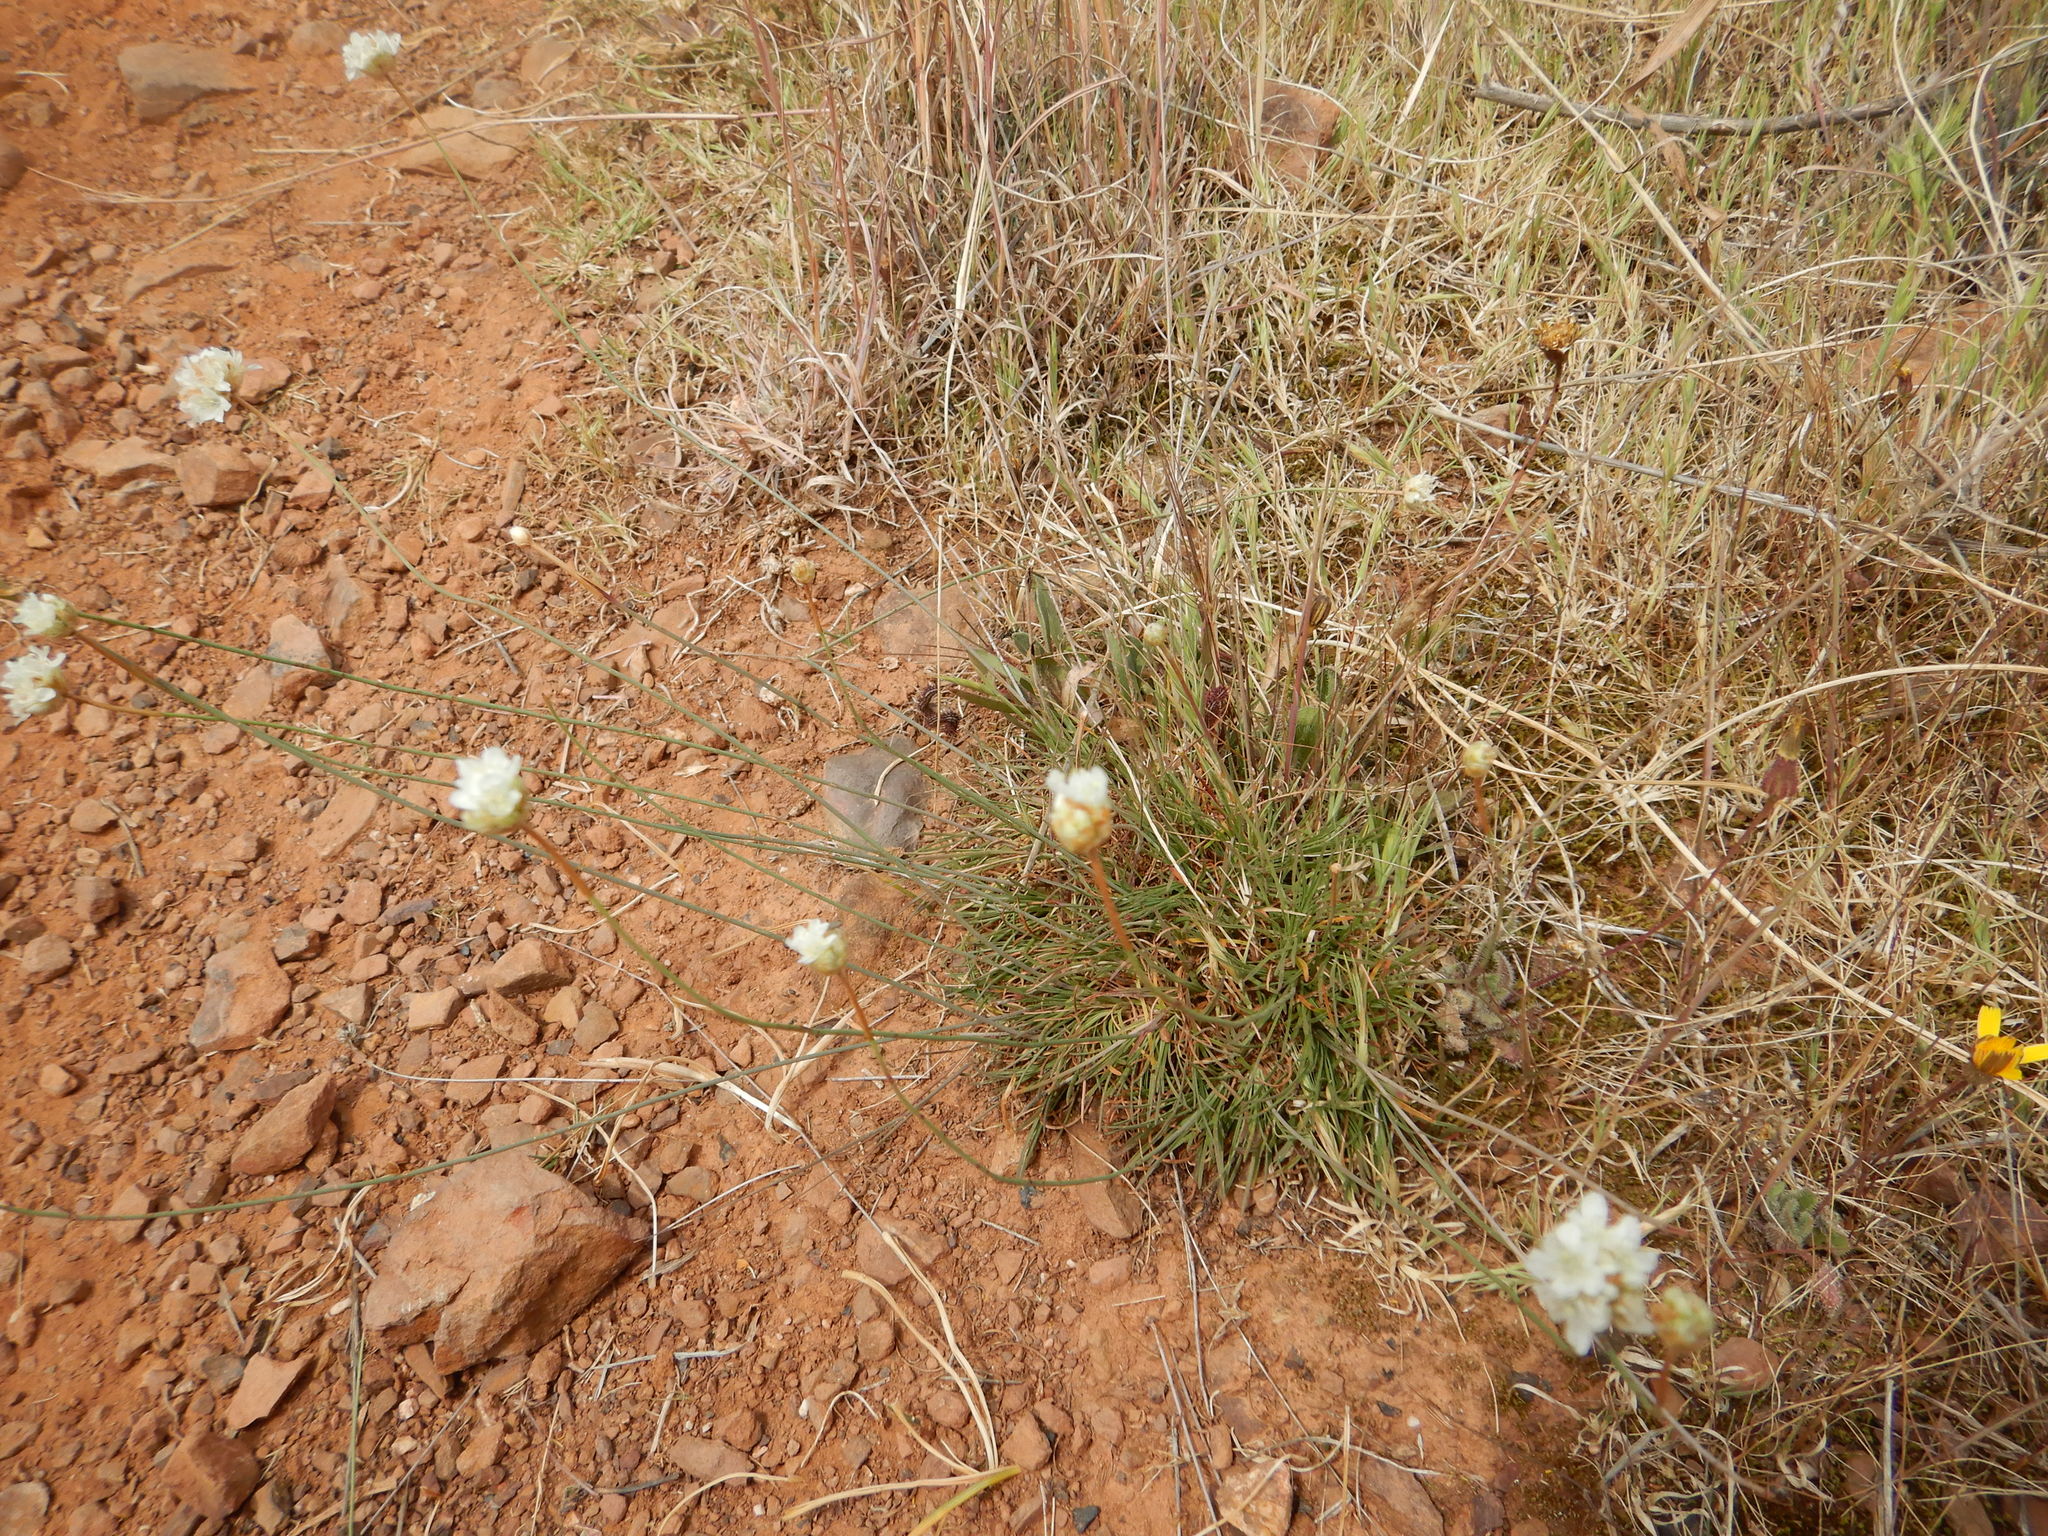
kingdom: Plantae
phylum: Tracheophyta
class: Magnoliopsida
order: Caryophyllales
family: Plumbaginaceae
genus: Armeria
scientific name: Armeria linkiana
